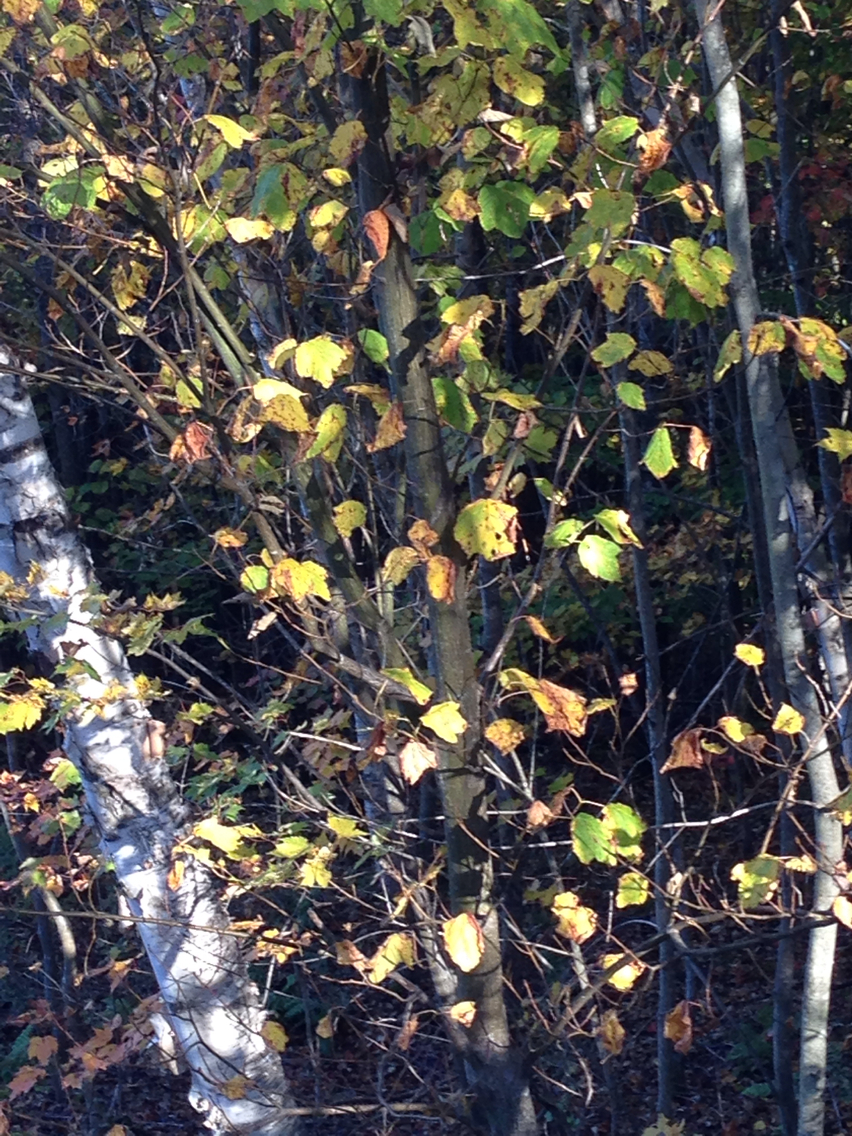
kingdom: Plantae
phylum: Tracheophyta
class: Magnoliopsida
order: Sapindales
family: Sapindaceae
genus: Acer
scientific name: Acer pensylvanicum
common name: Moosewood
